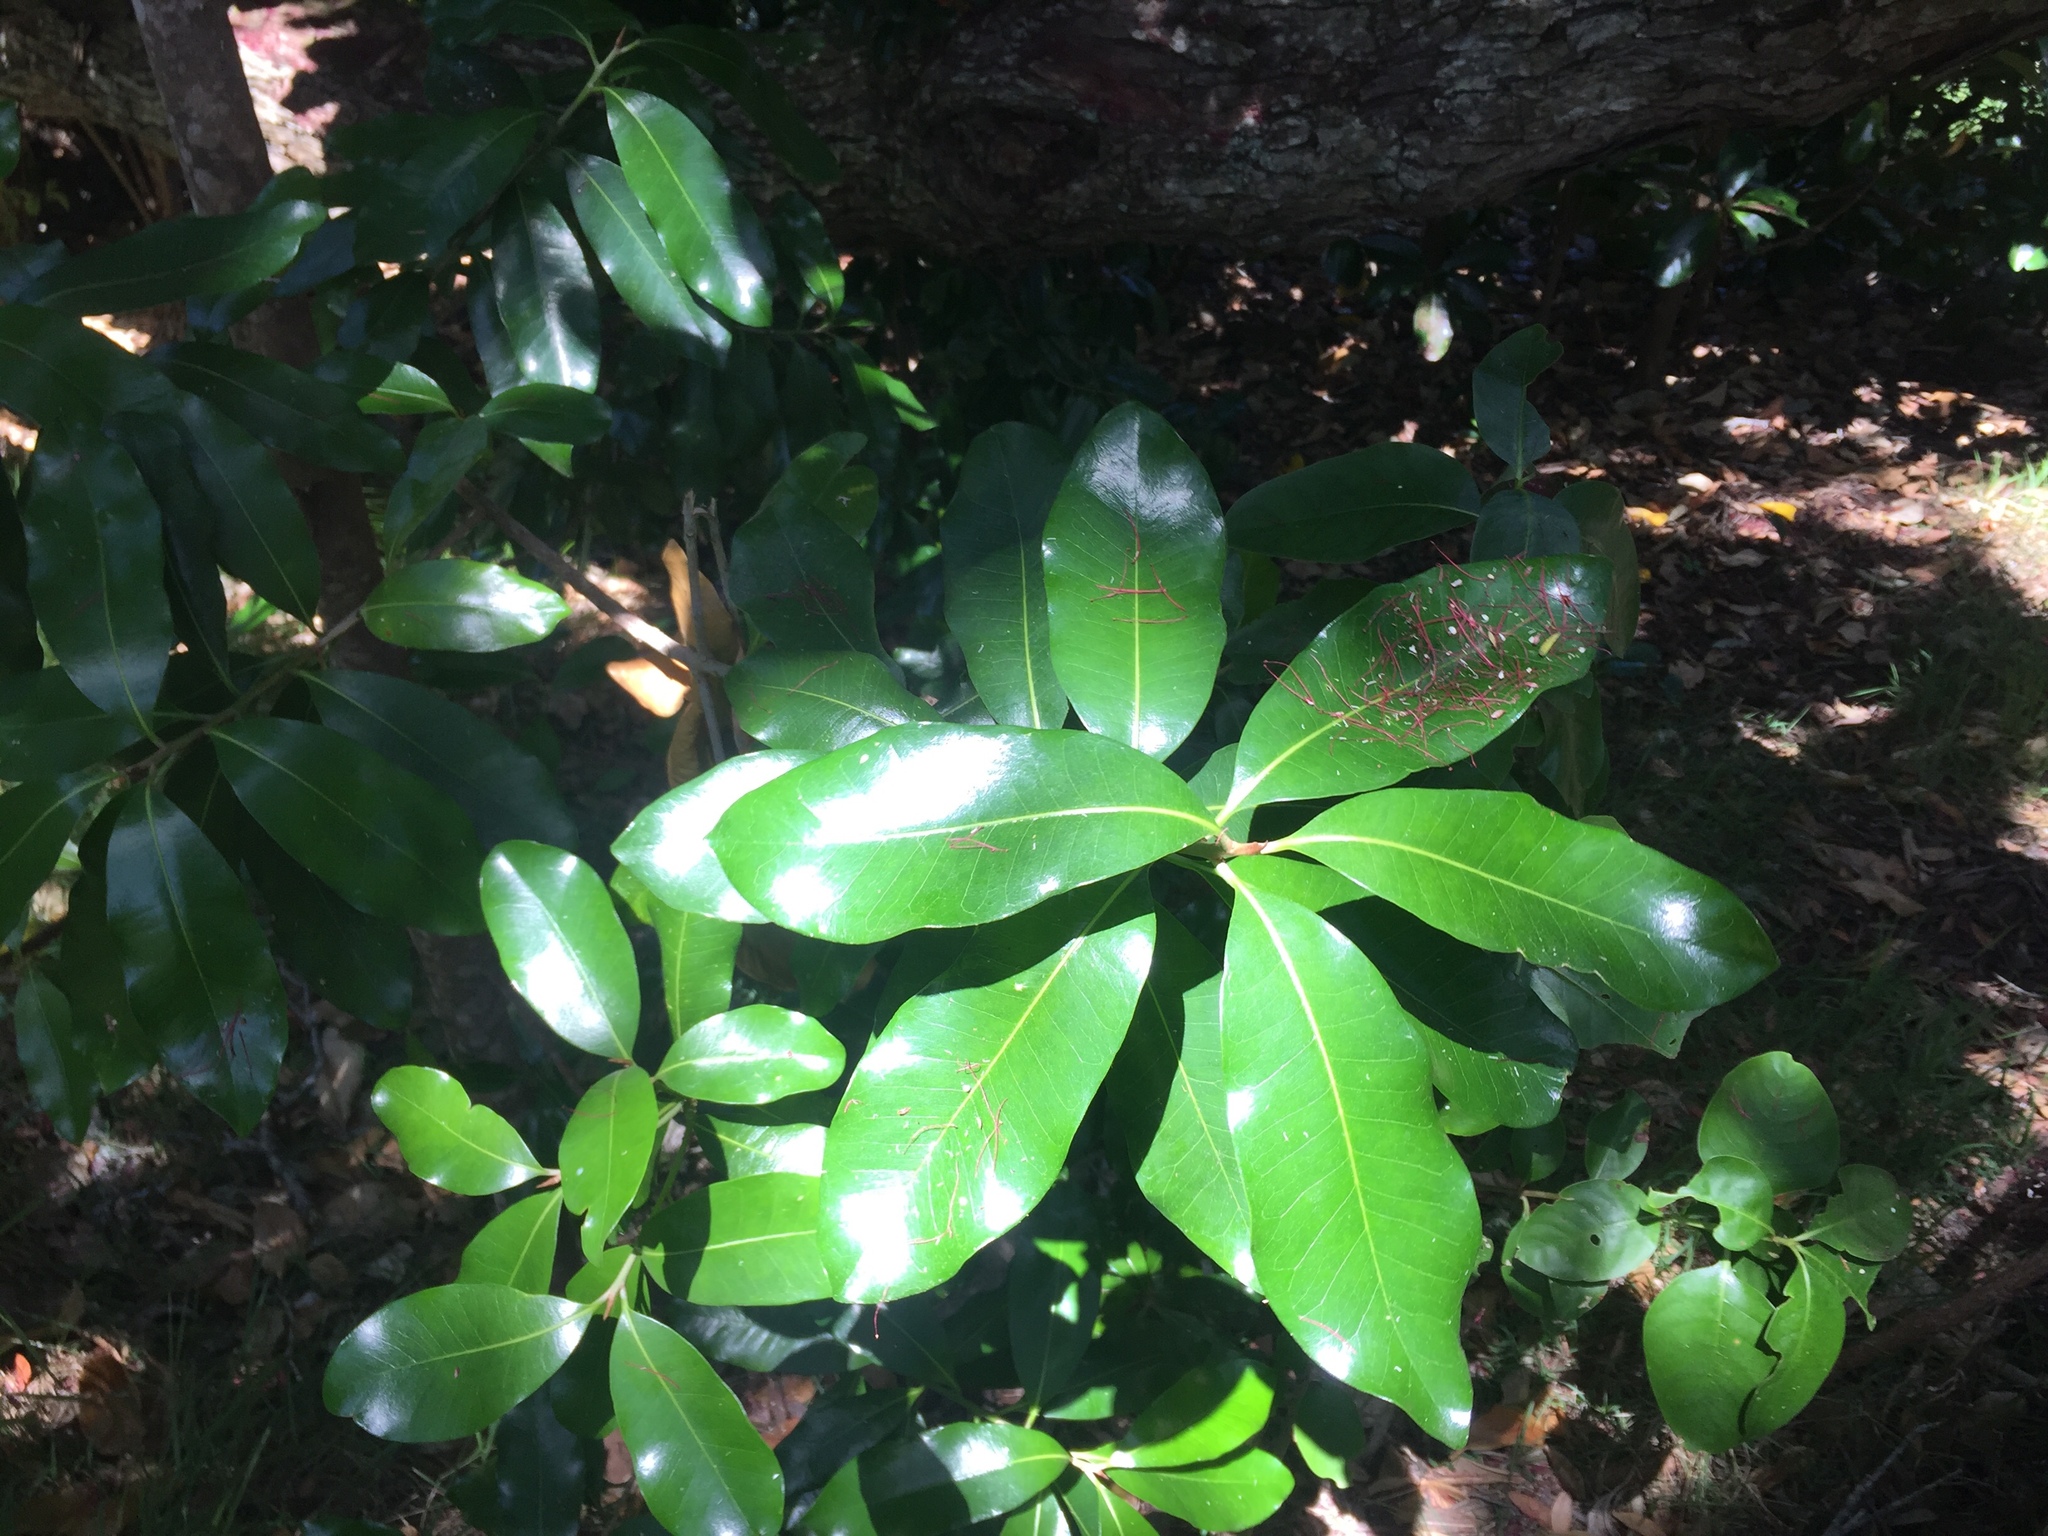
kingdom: Plantae
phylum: Tracheophyta
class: Magnoliopsida
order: Ericales
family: Sapotaceae
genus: Planchonella
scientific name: Planchonella costata
